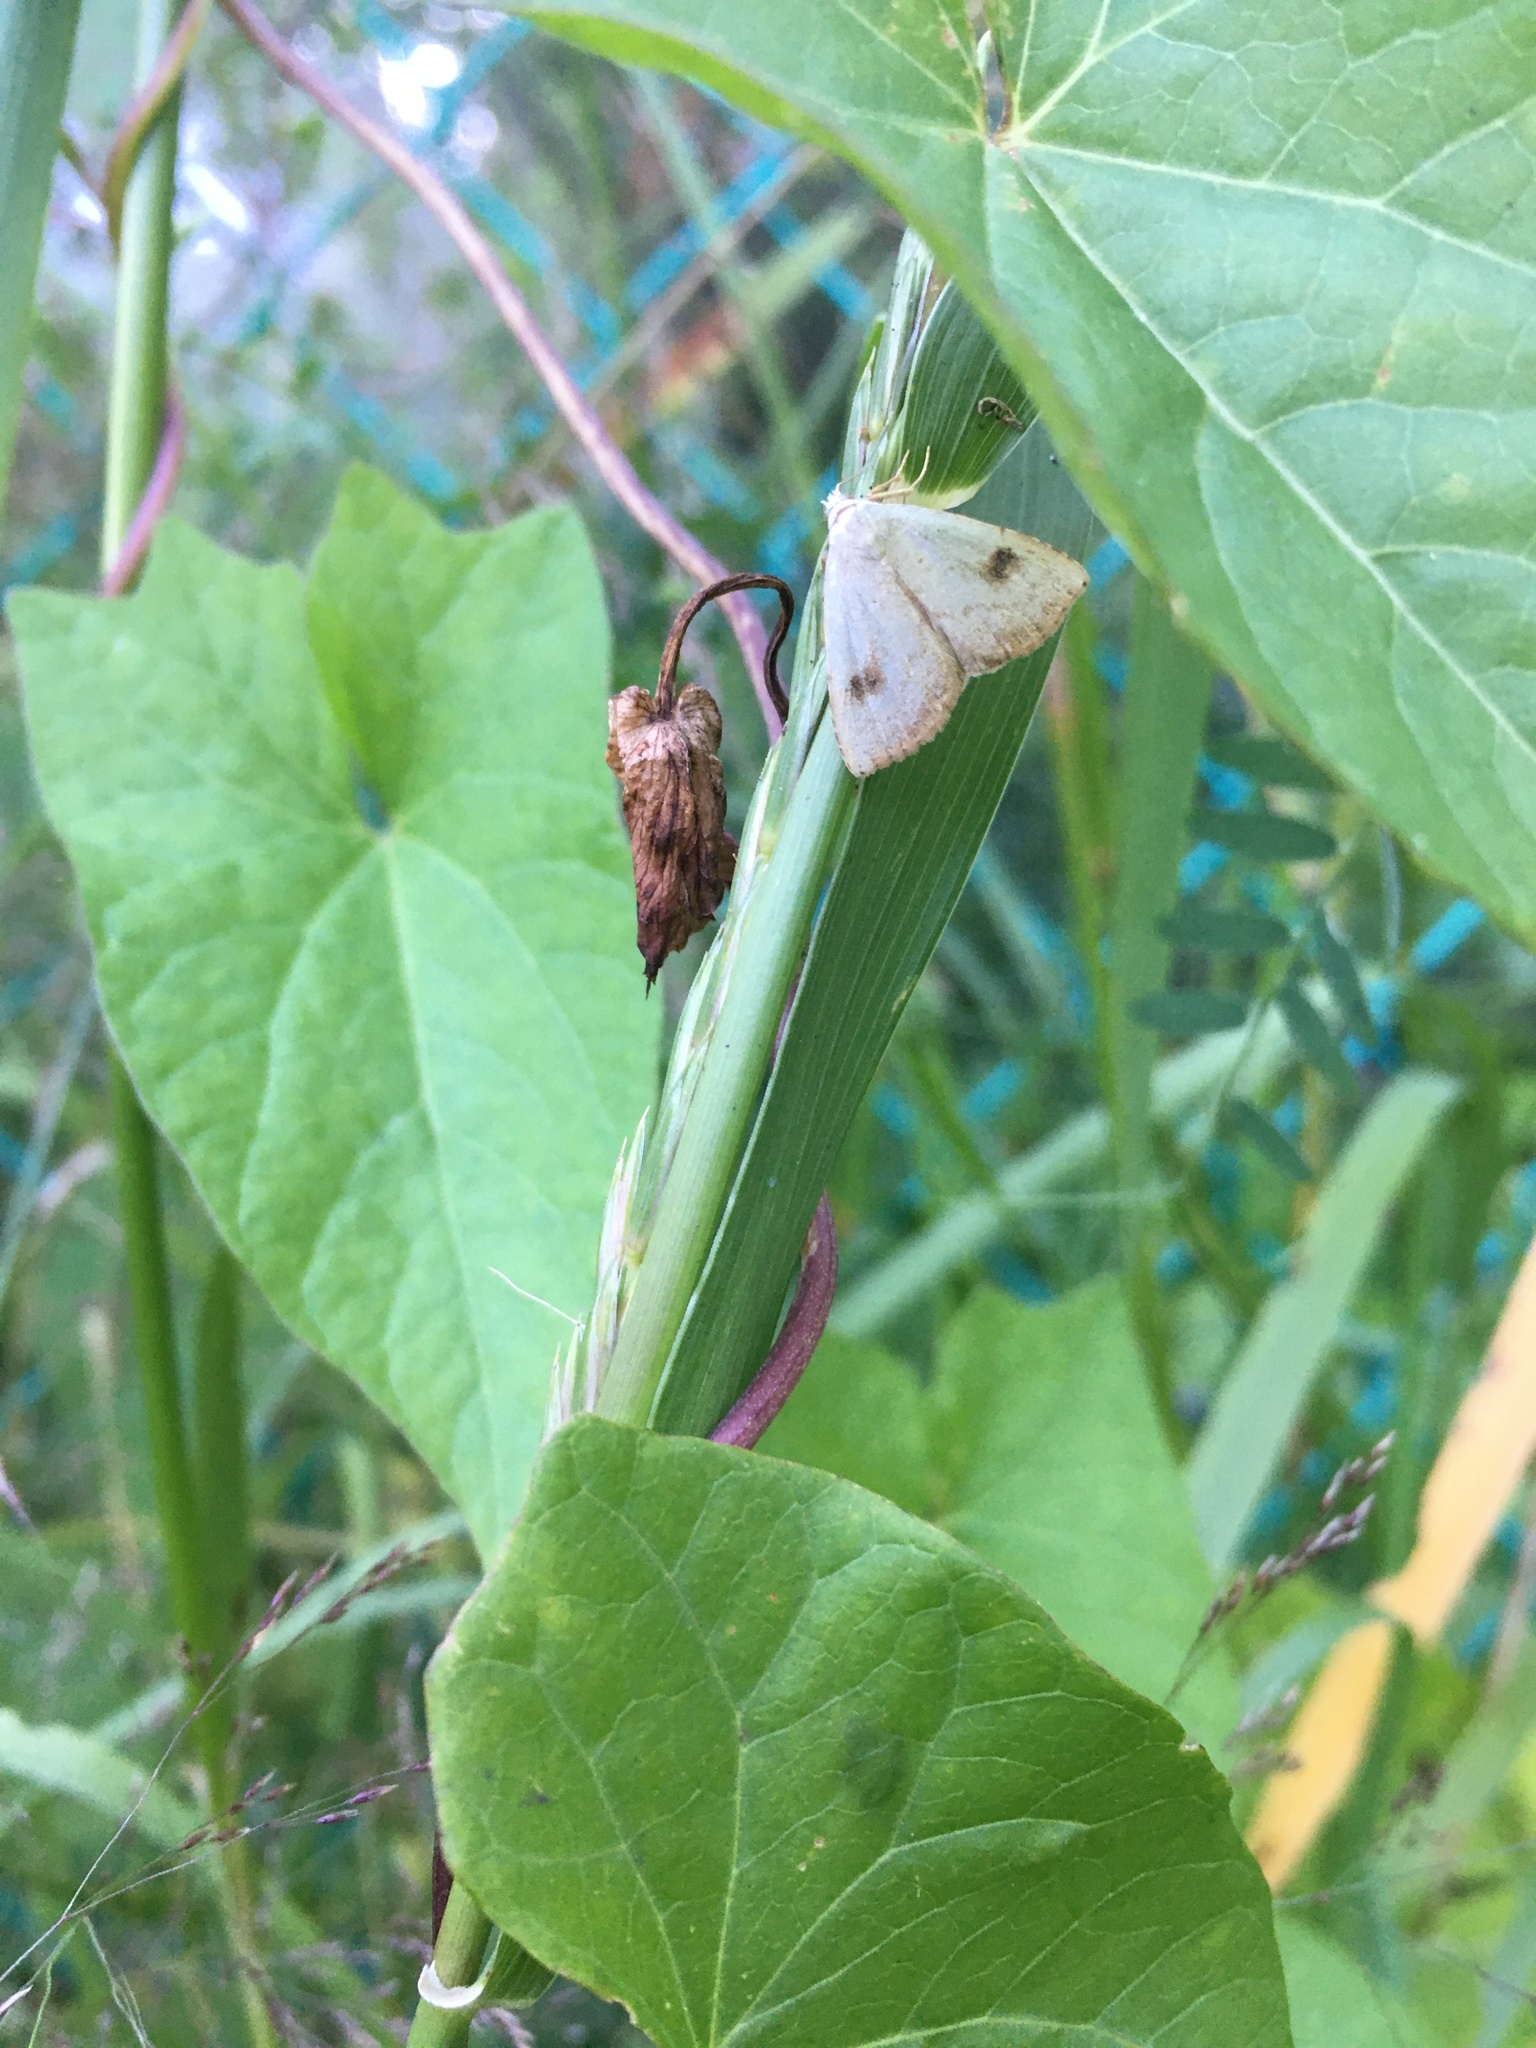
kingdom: Animalia
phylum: Arthropoda
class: Insecta
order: Lepidoptera
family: Erebidae
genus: Rivula
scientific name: Rivula sericealis
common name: Straw dot
